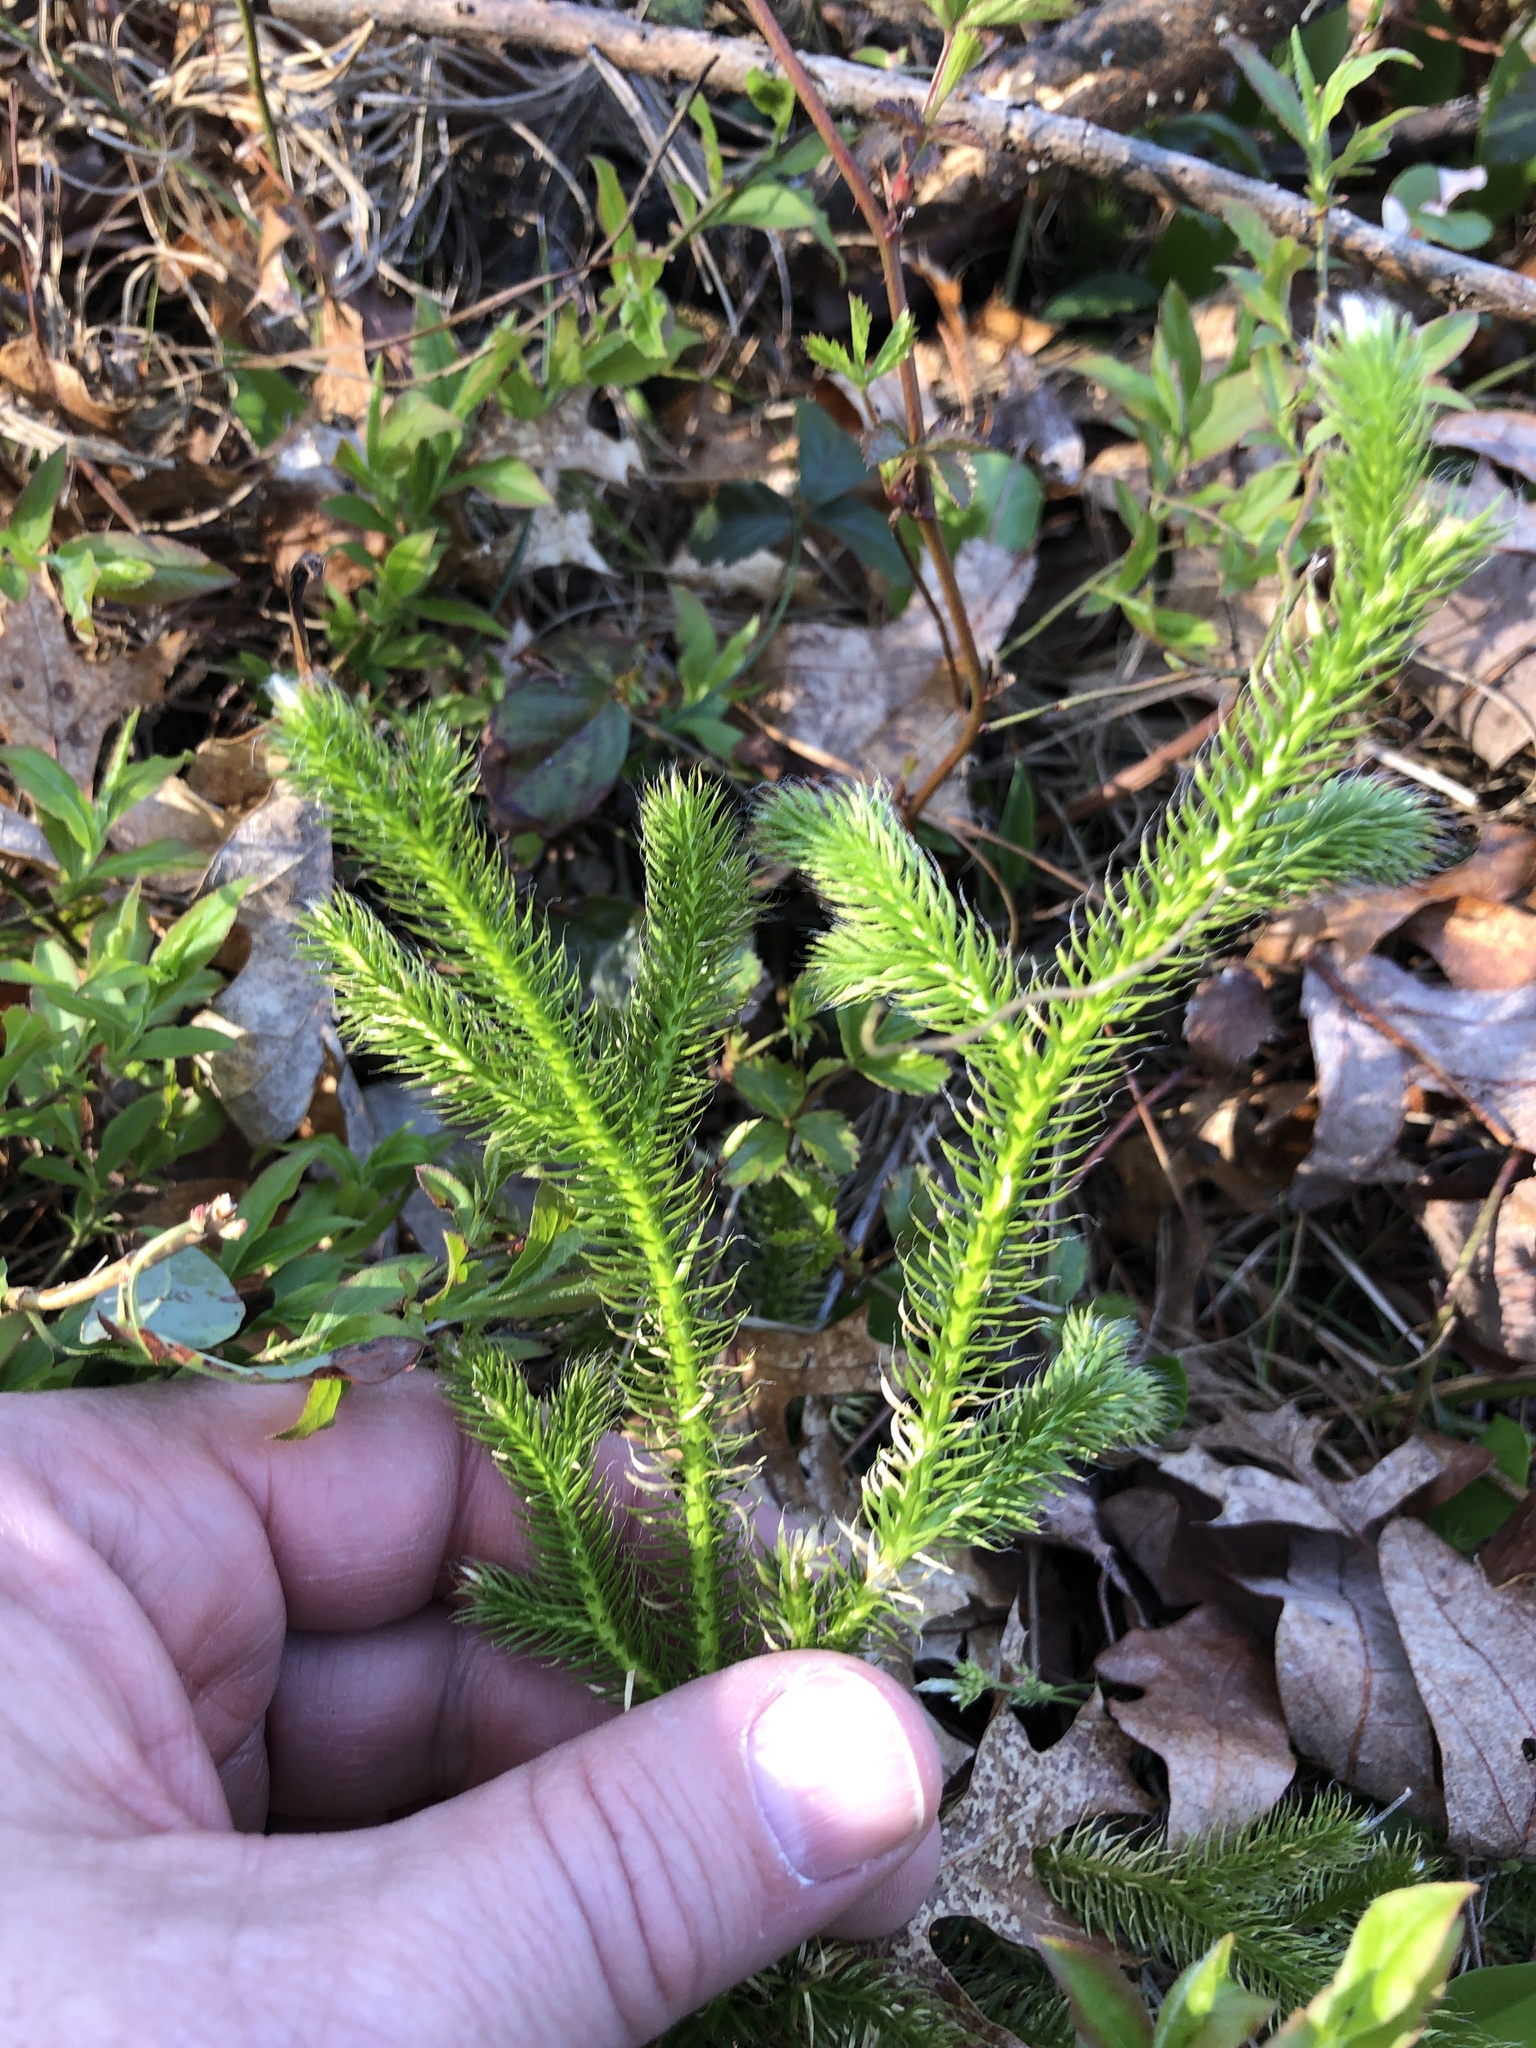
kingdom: Plantae
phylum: Tracheophyta
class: Lycopodiopsida
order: Lycopodiales
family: Lycopodiaceae
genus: Lycopodium
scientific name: Lycopodium clavatum
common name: Stag's-horn clubmoss
